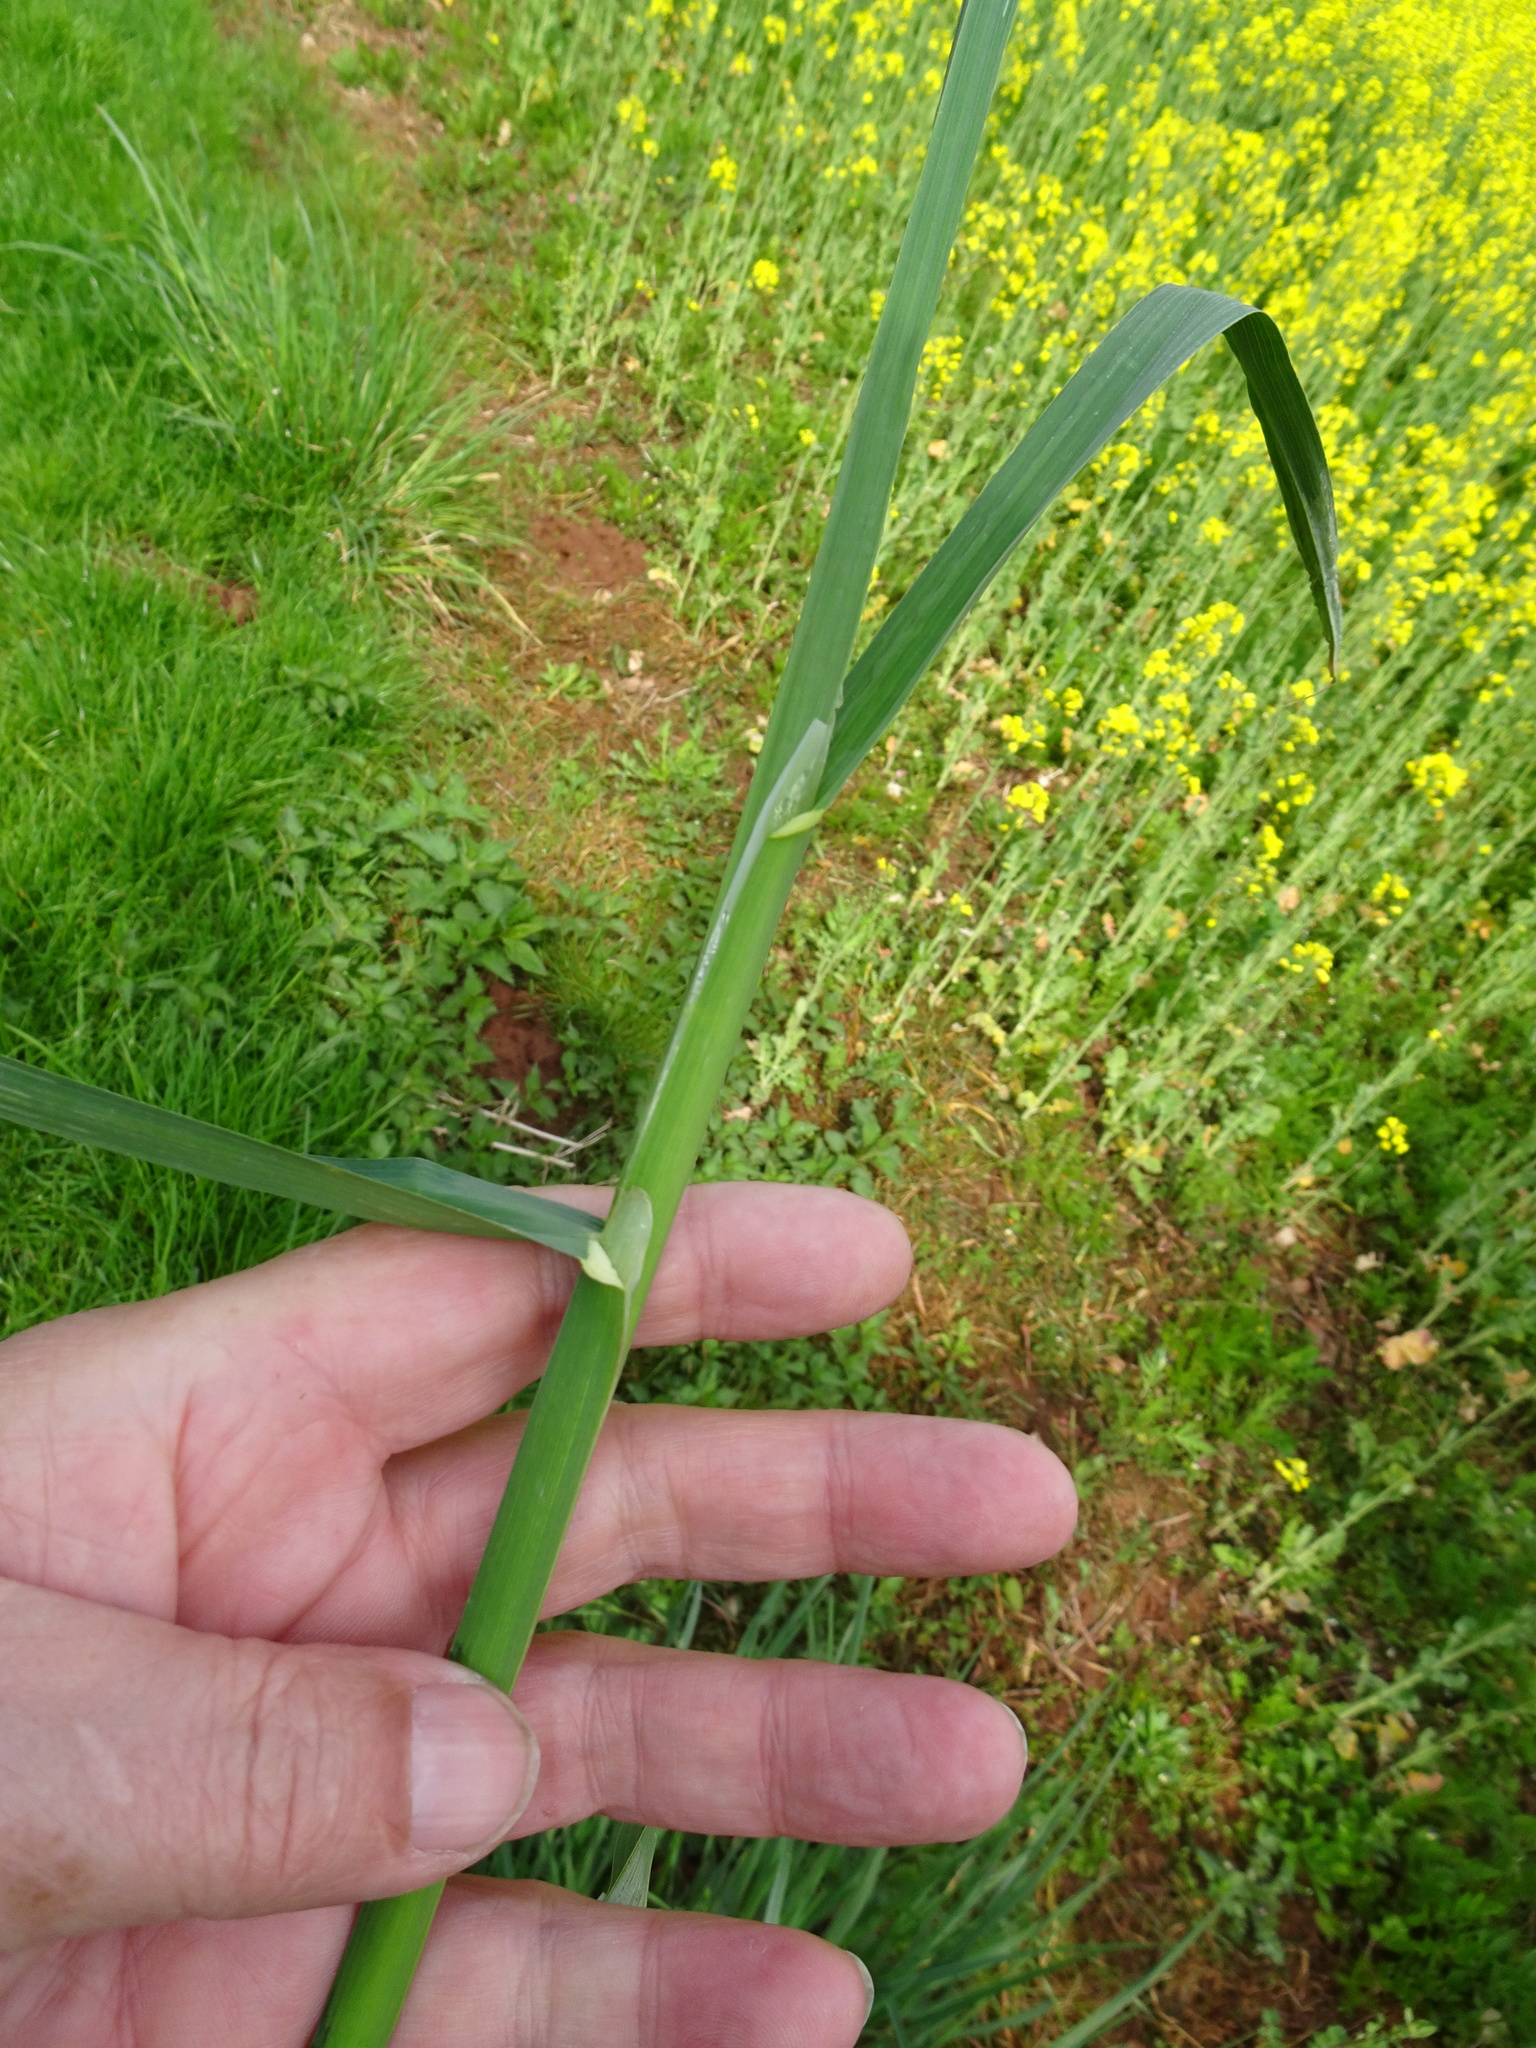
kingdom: Plantae
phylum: Tracheophyta
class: Liliopsida
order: Poales
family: Poaceae
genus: Dactylis
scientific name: Dactylis glomerata
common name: Orchardgrass
